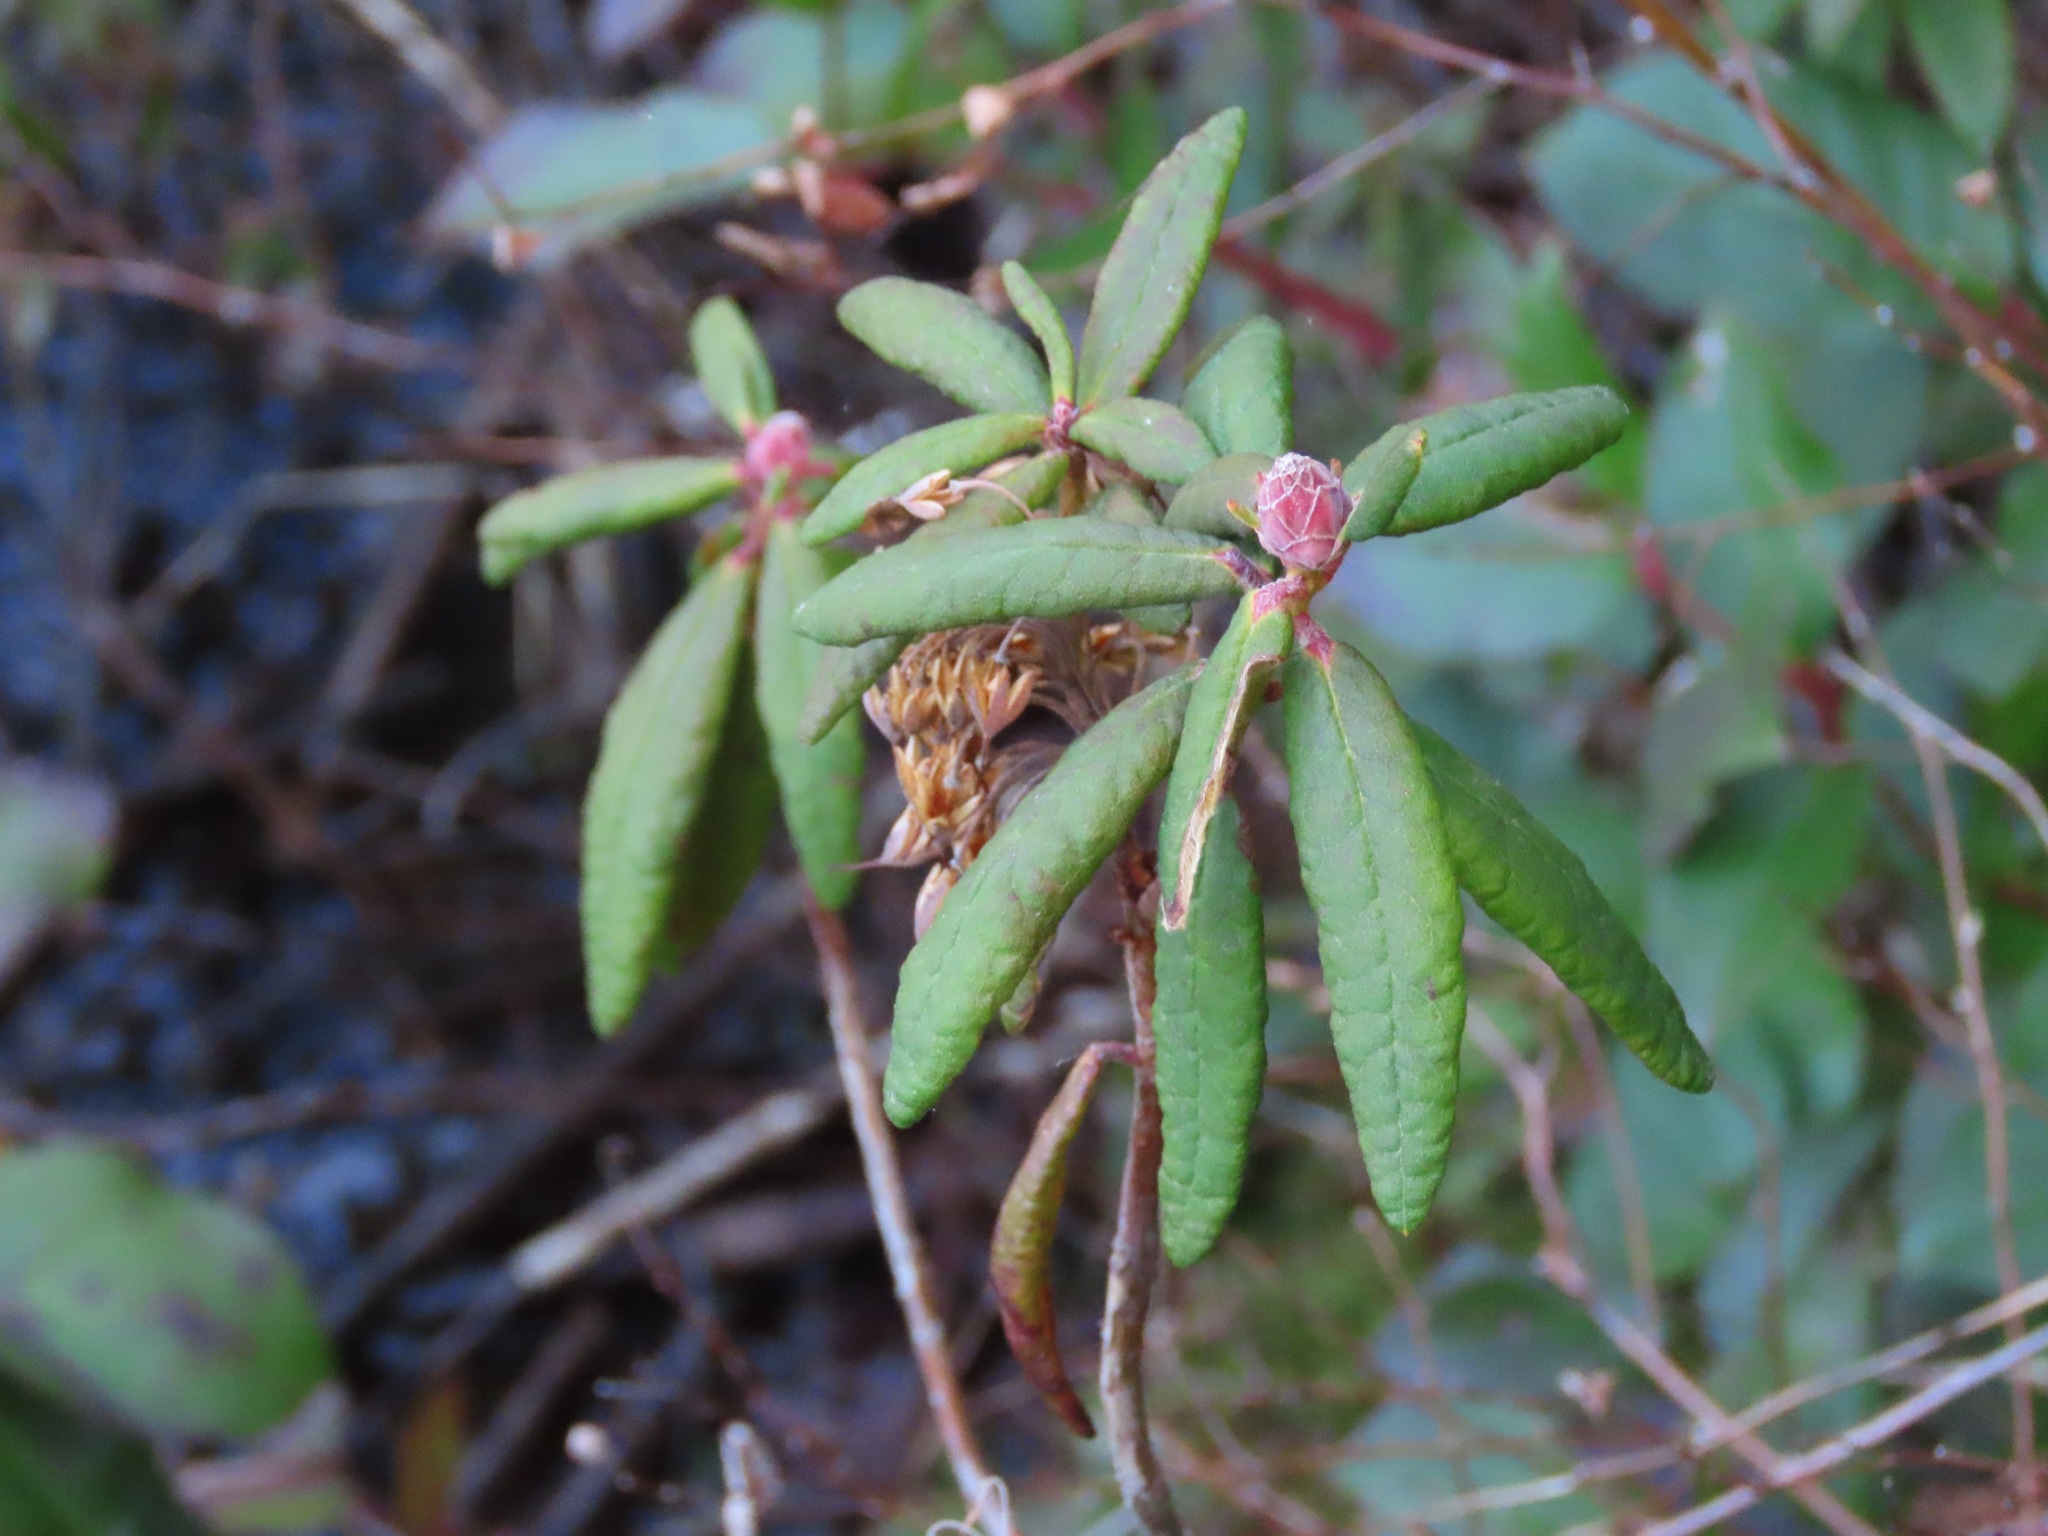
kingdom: Plantae
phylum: Tracheophyta
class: Magnoliopsida
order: Ericales
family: Ericaceae
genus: Rhododendron
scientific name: Rhododendron groenlandicum
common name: Bog labrador tea
